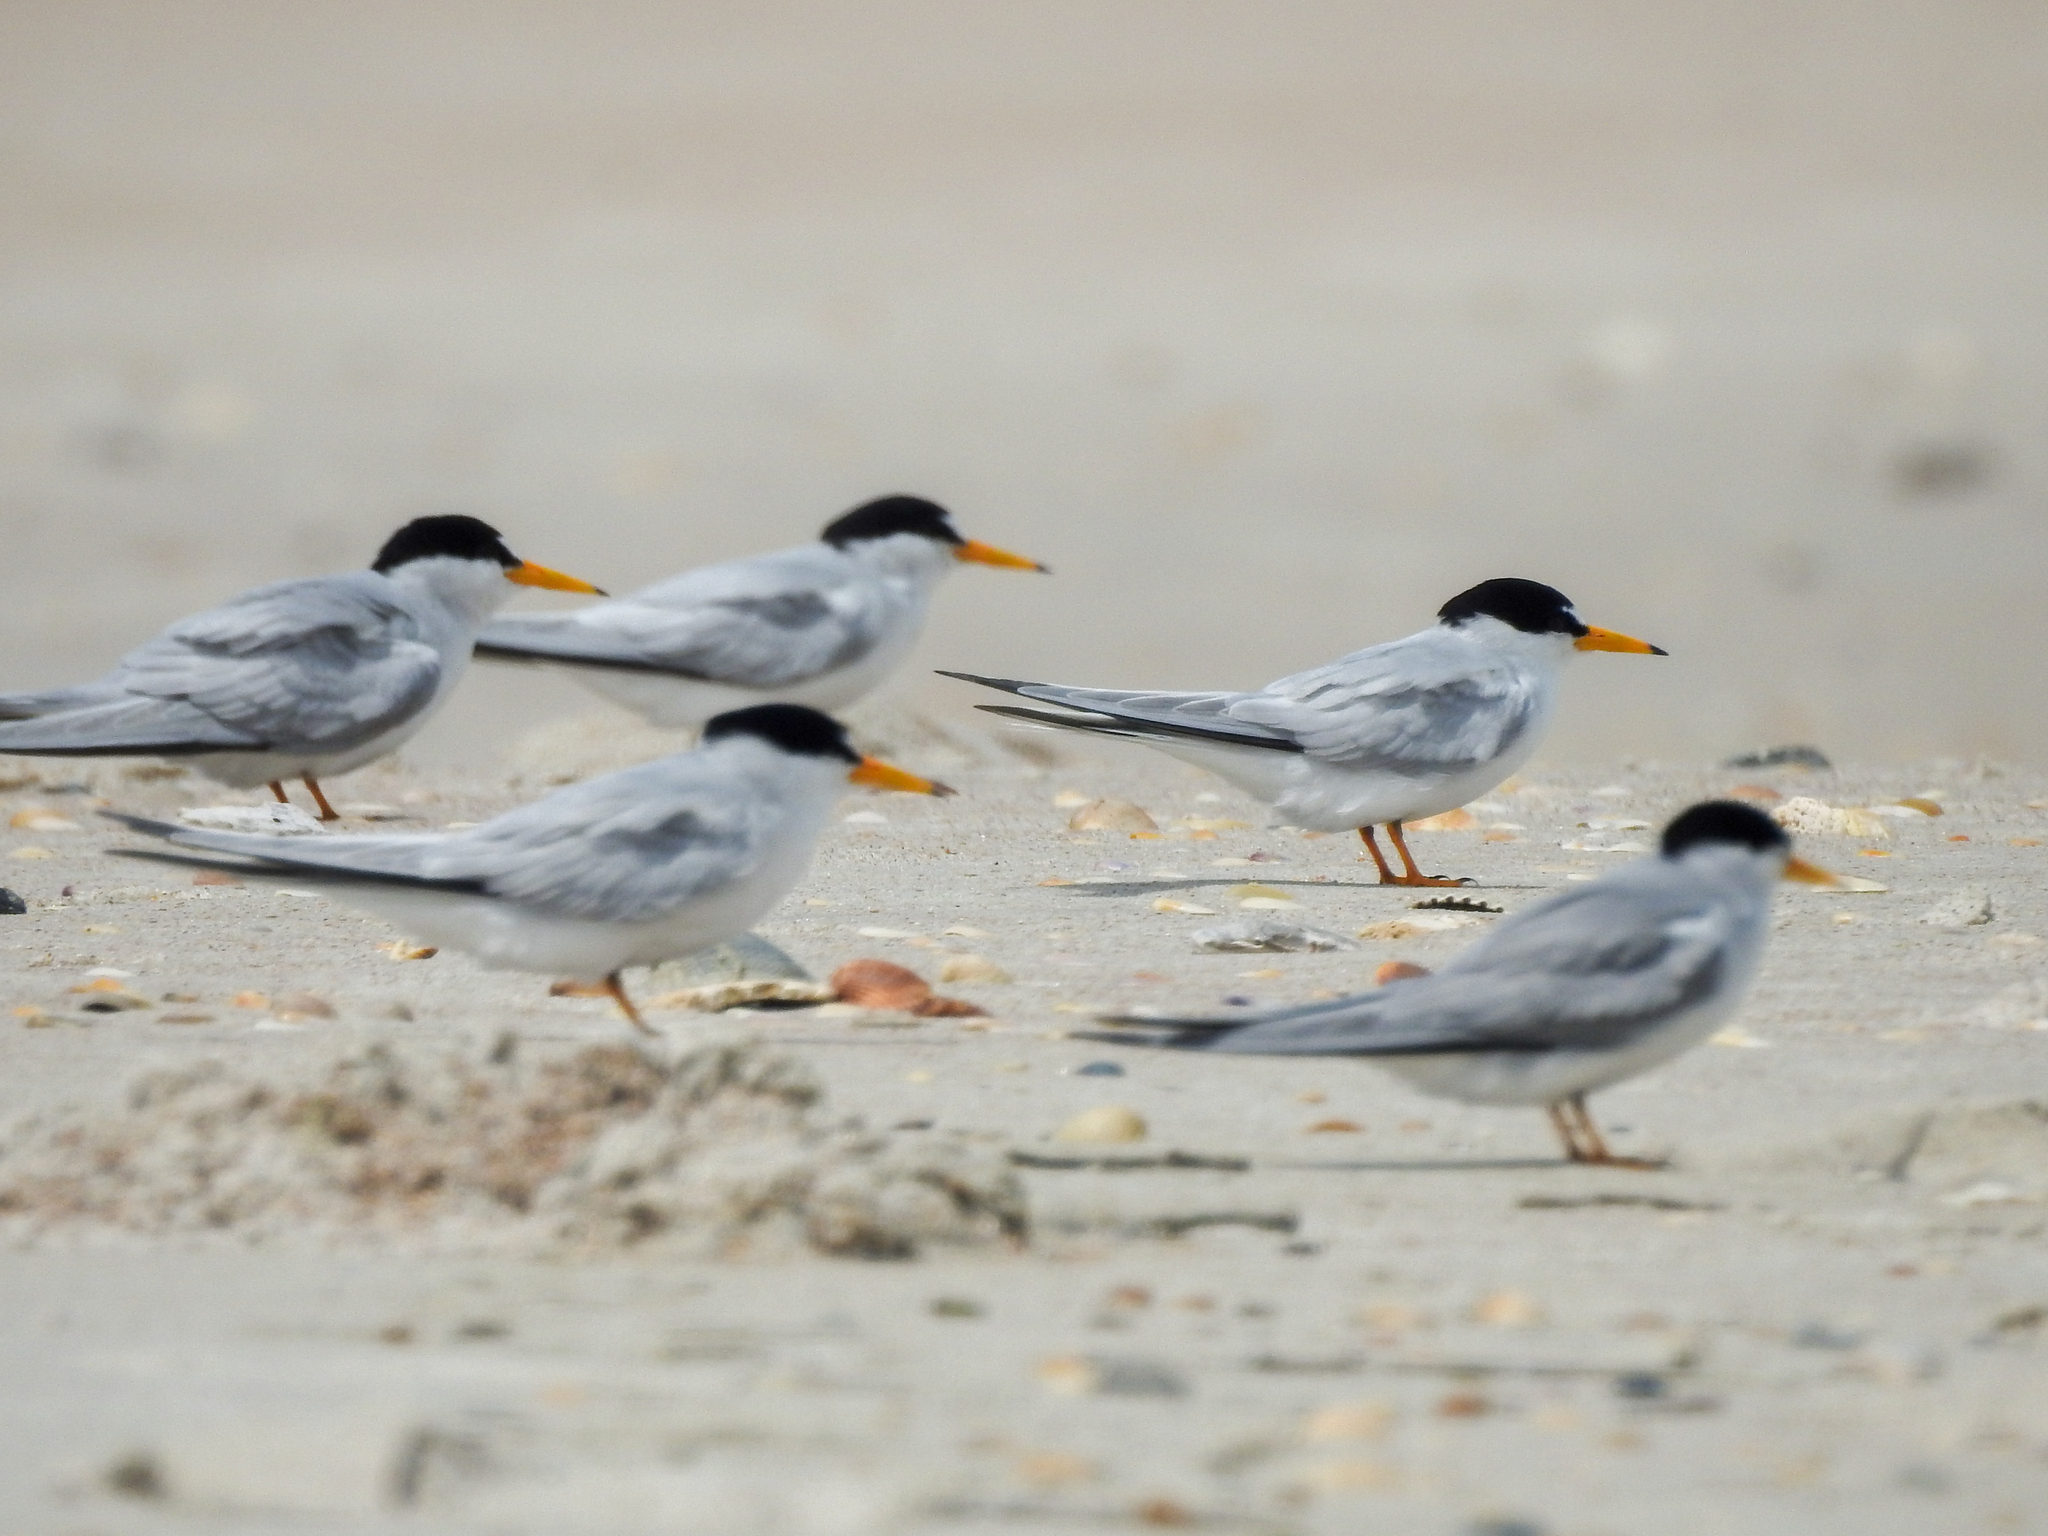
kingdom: Animalia
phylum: Chordata
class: Aves
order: Charadriiformes
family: Laridae
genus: Sternula
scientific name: Sternula antillarum
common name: Least tern
